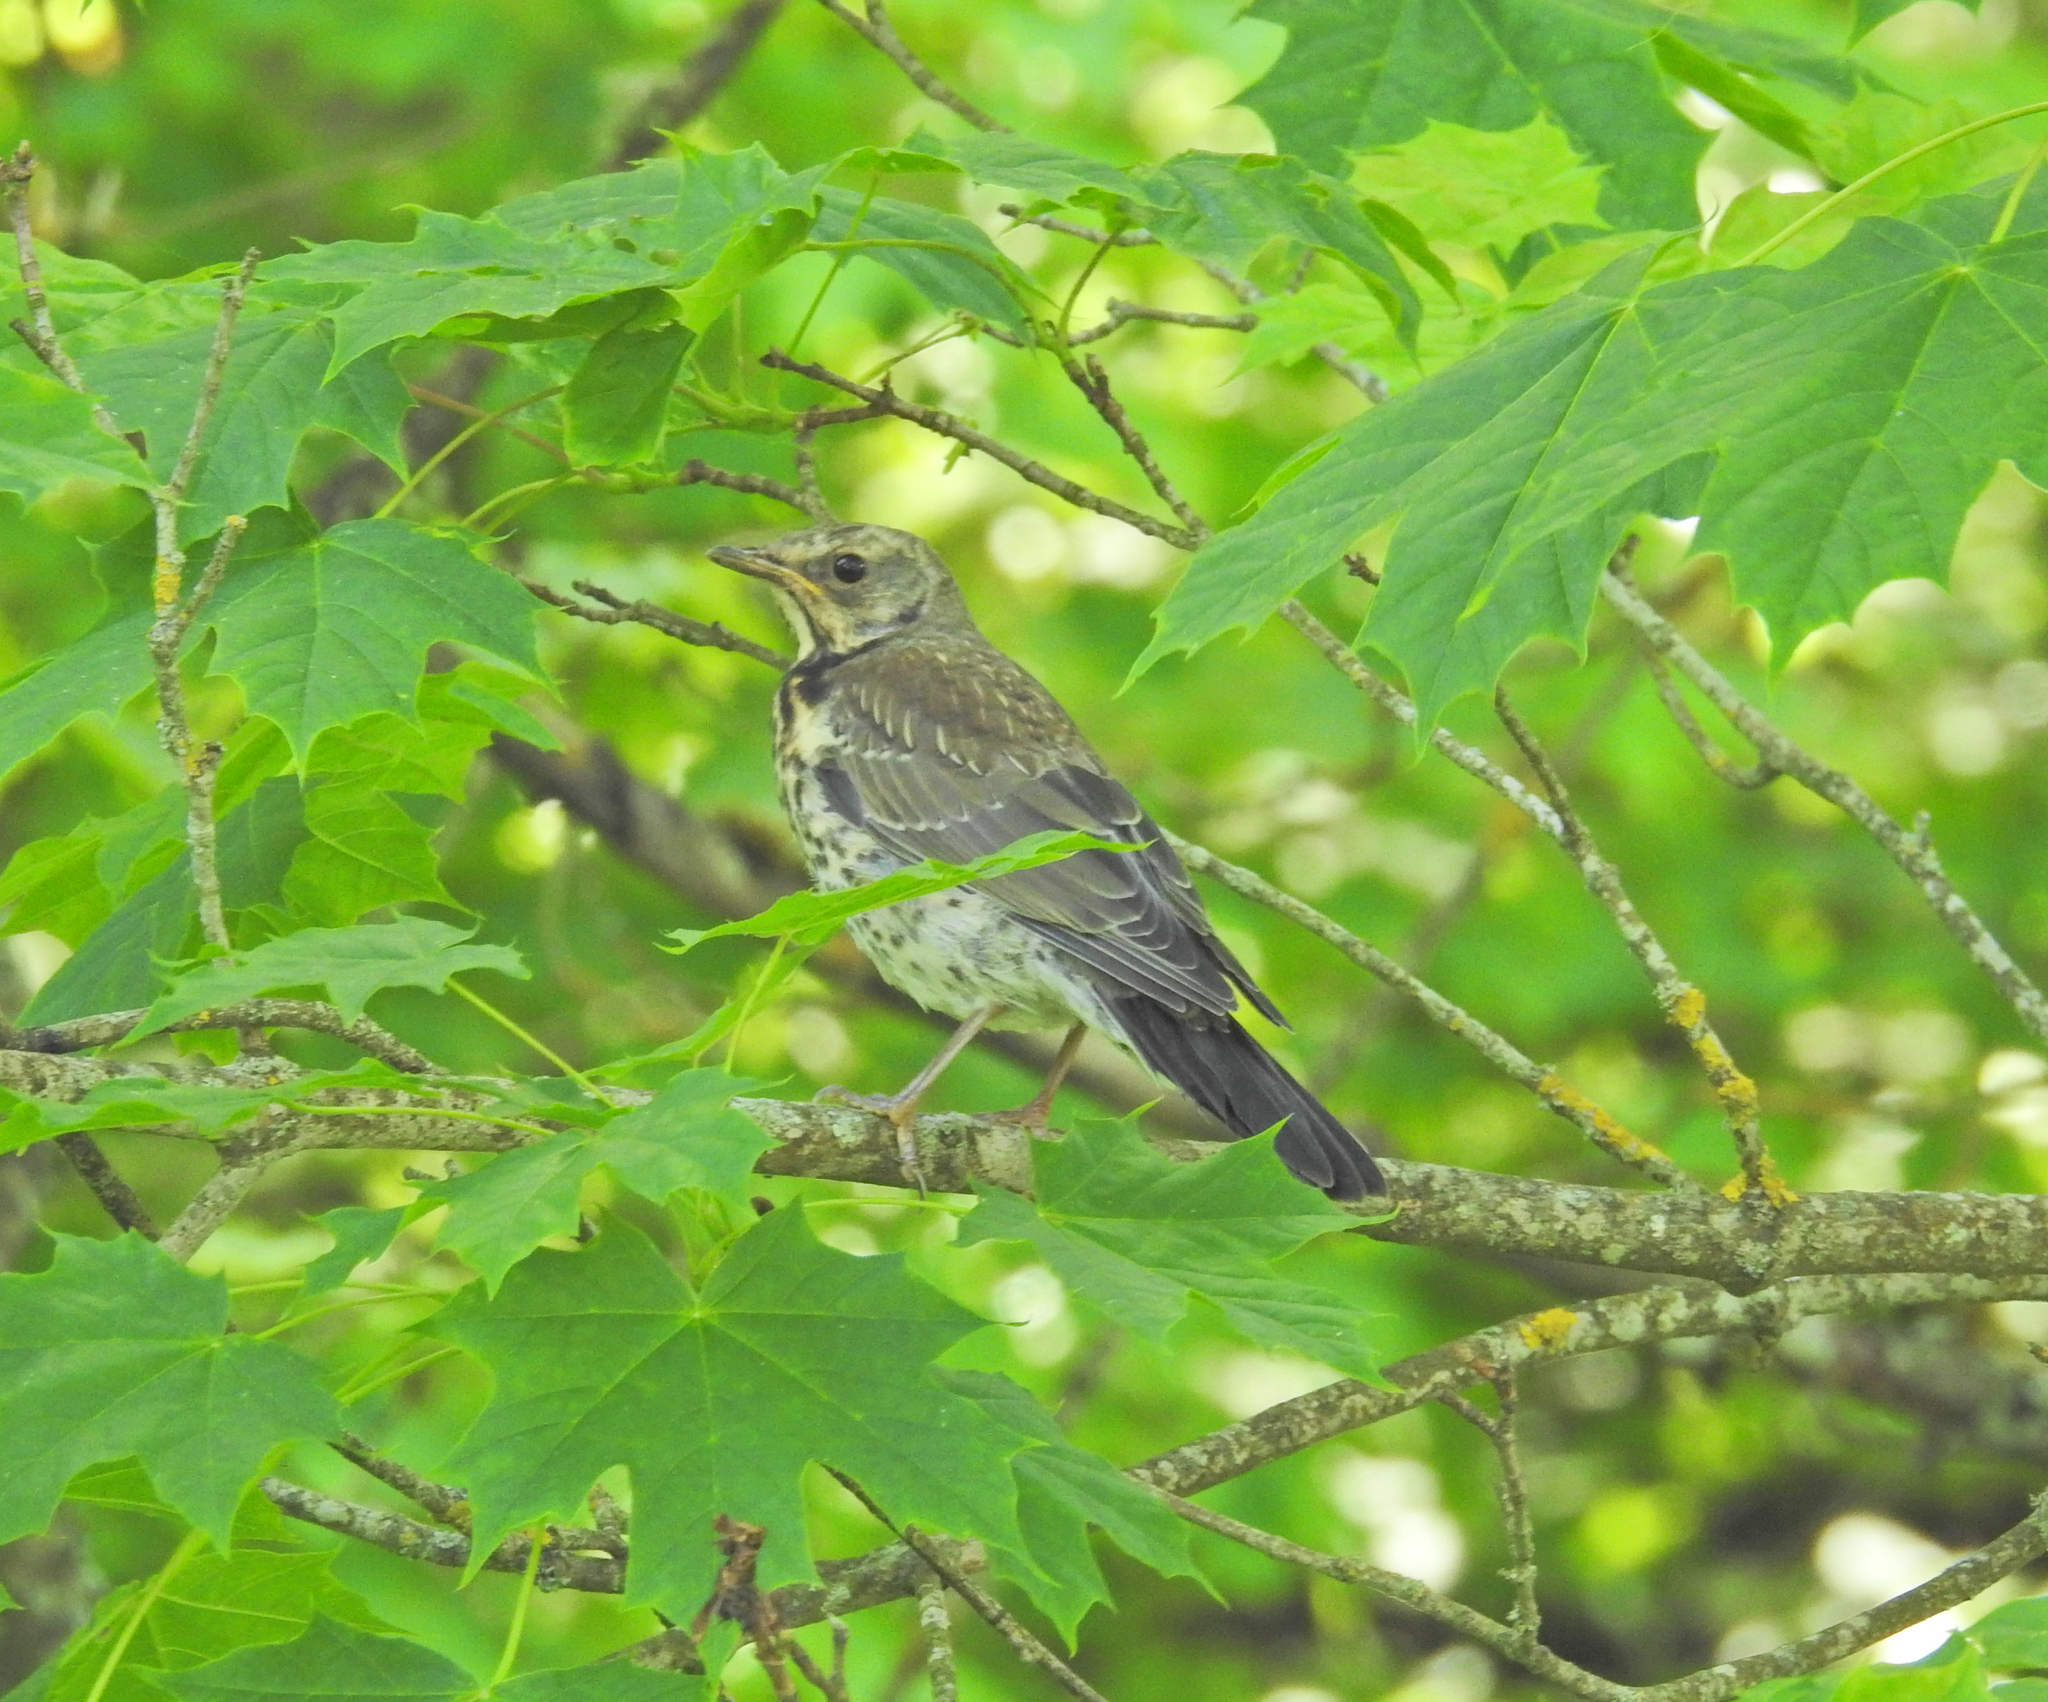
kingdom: Animalia
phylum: Chordata
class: Aves
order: Passeriformes
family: Turdidae
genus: Turdus
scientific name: Turdus pilaris
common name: Fieldfare
